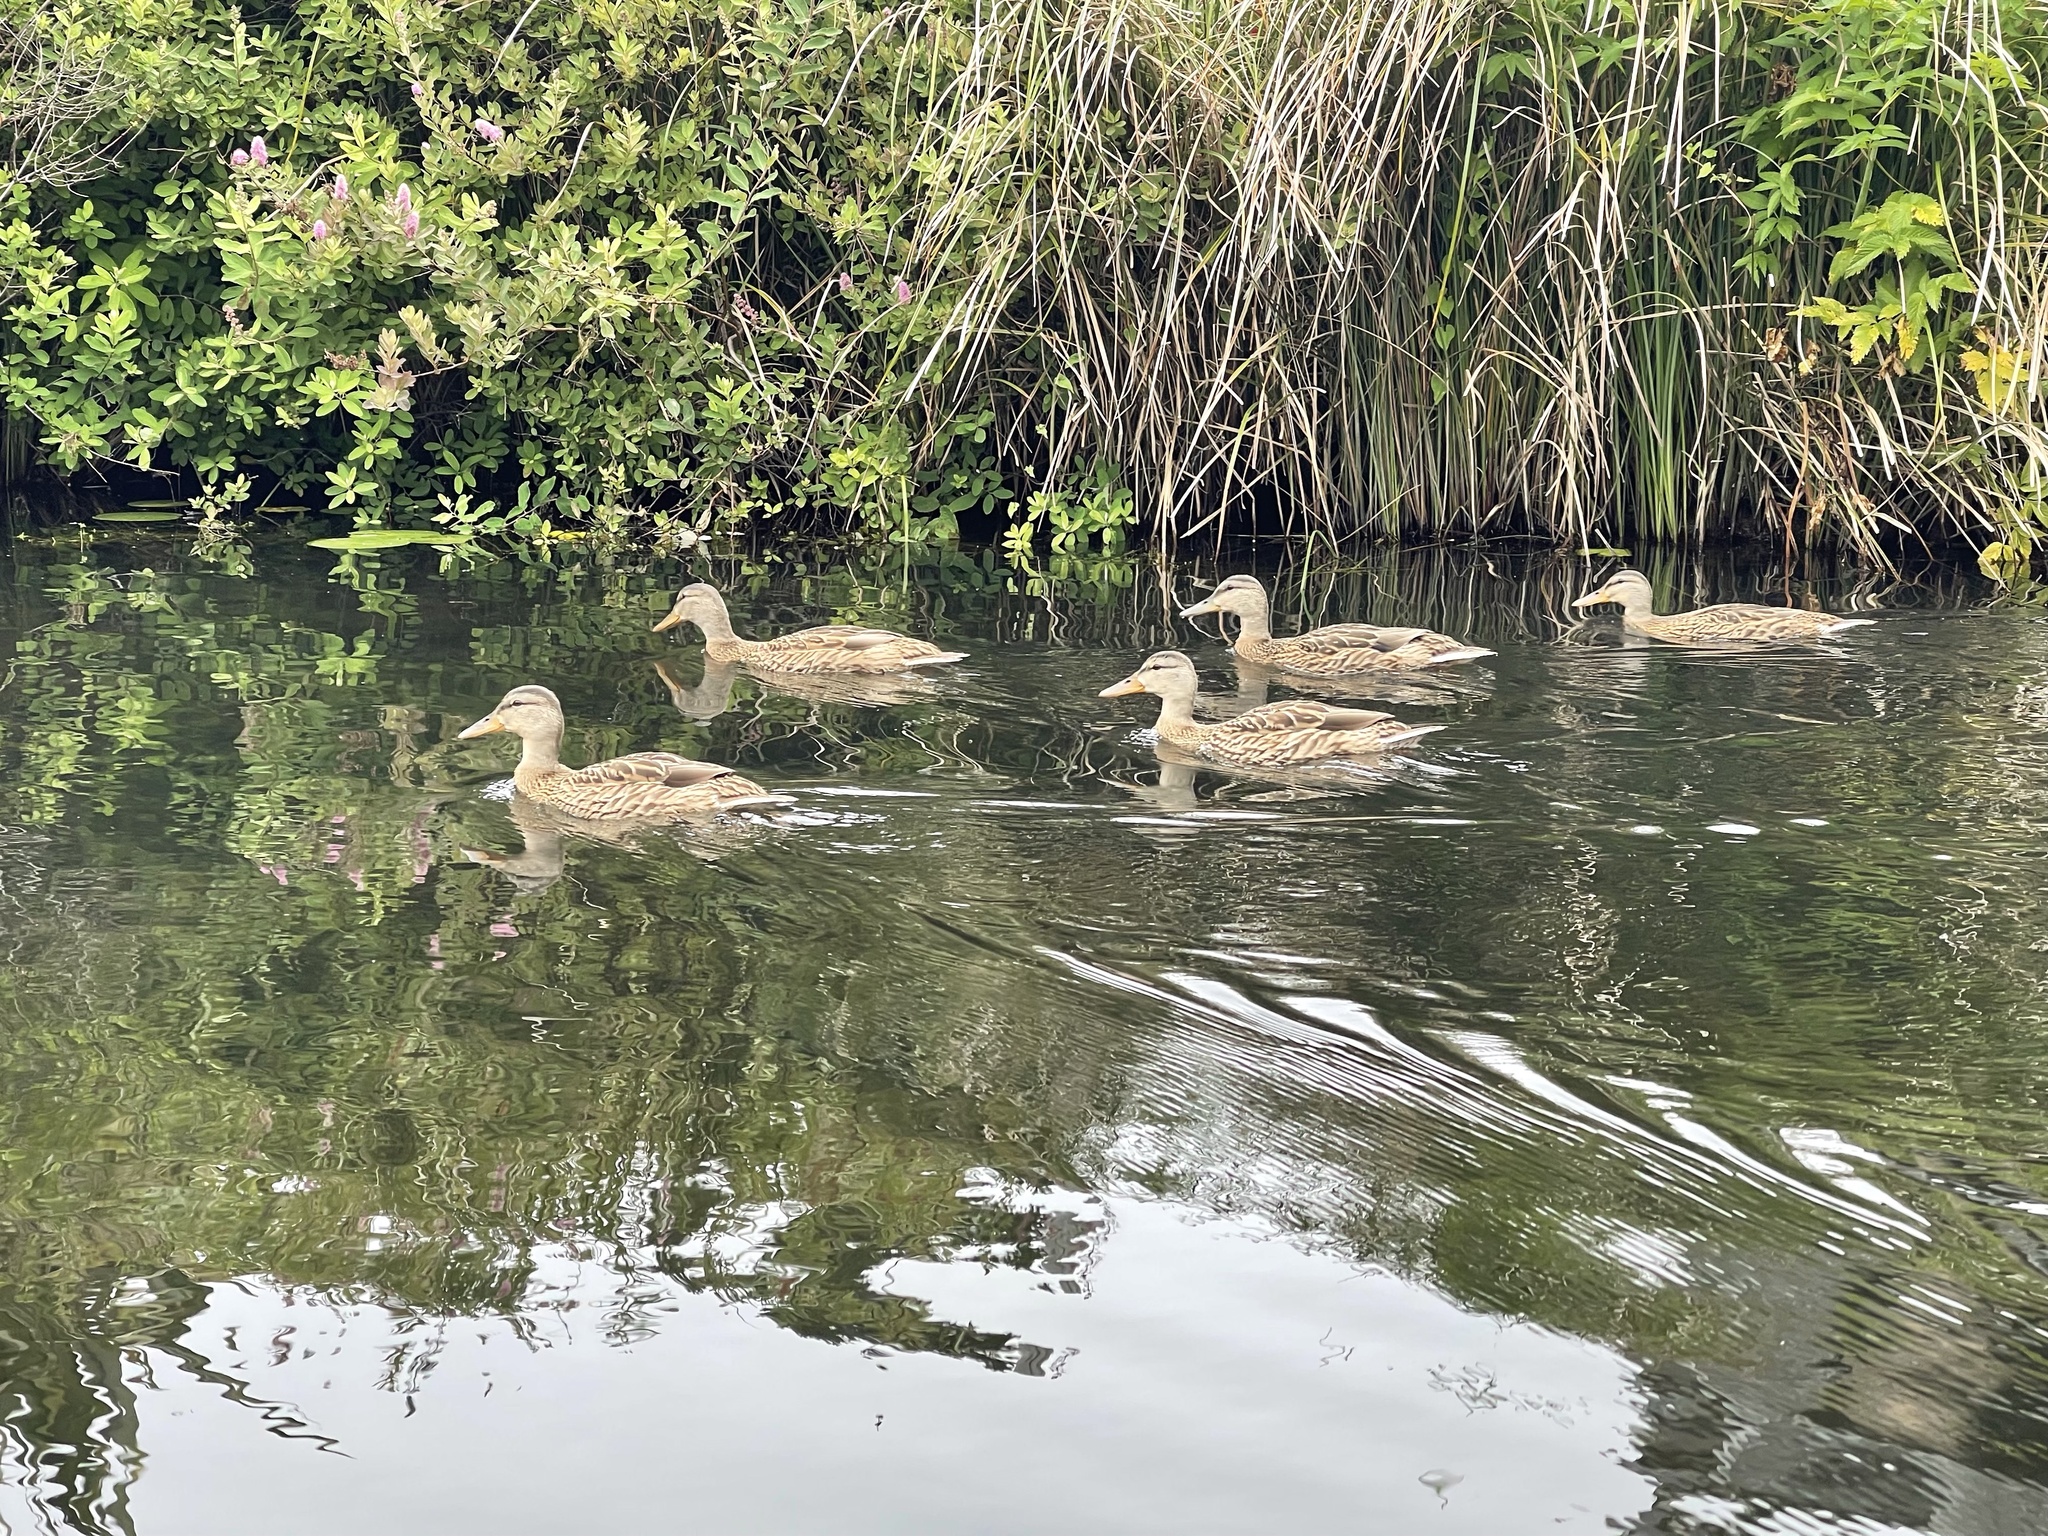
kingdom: Animalia
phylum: Chordata
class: Aves
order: Anseriformes
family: Anatidae
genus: Anas
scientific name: Anas platyrhynchos
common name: Mallard
